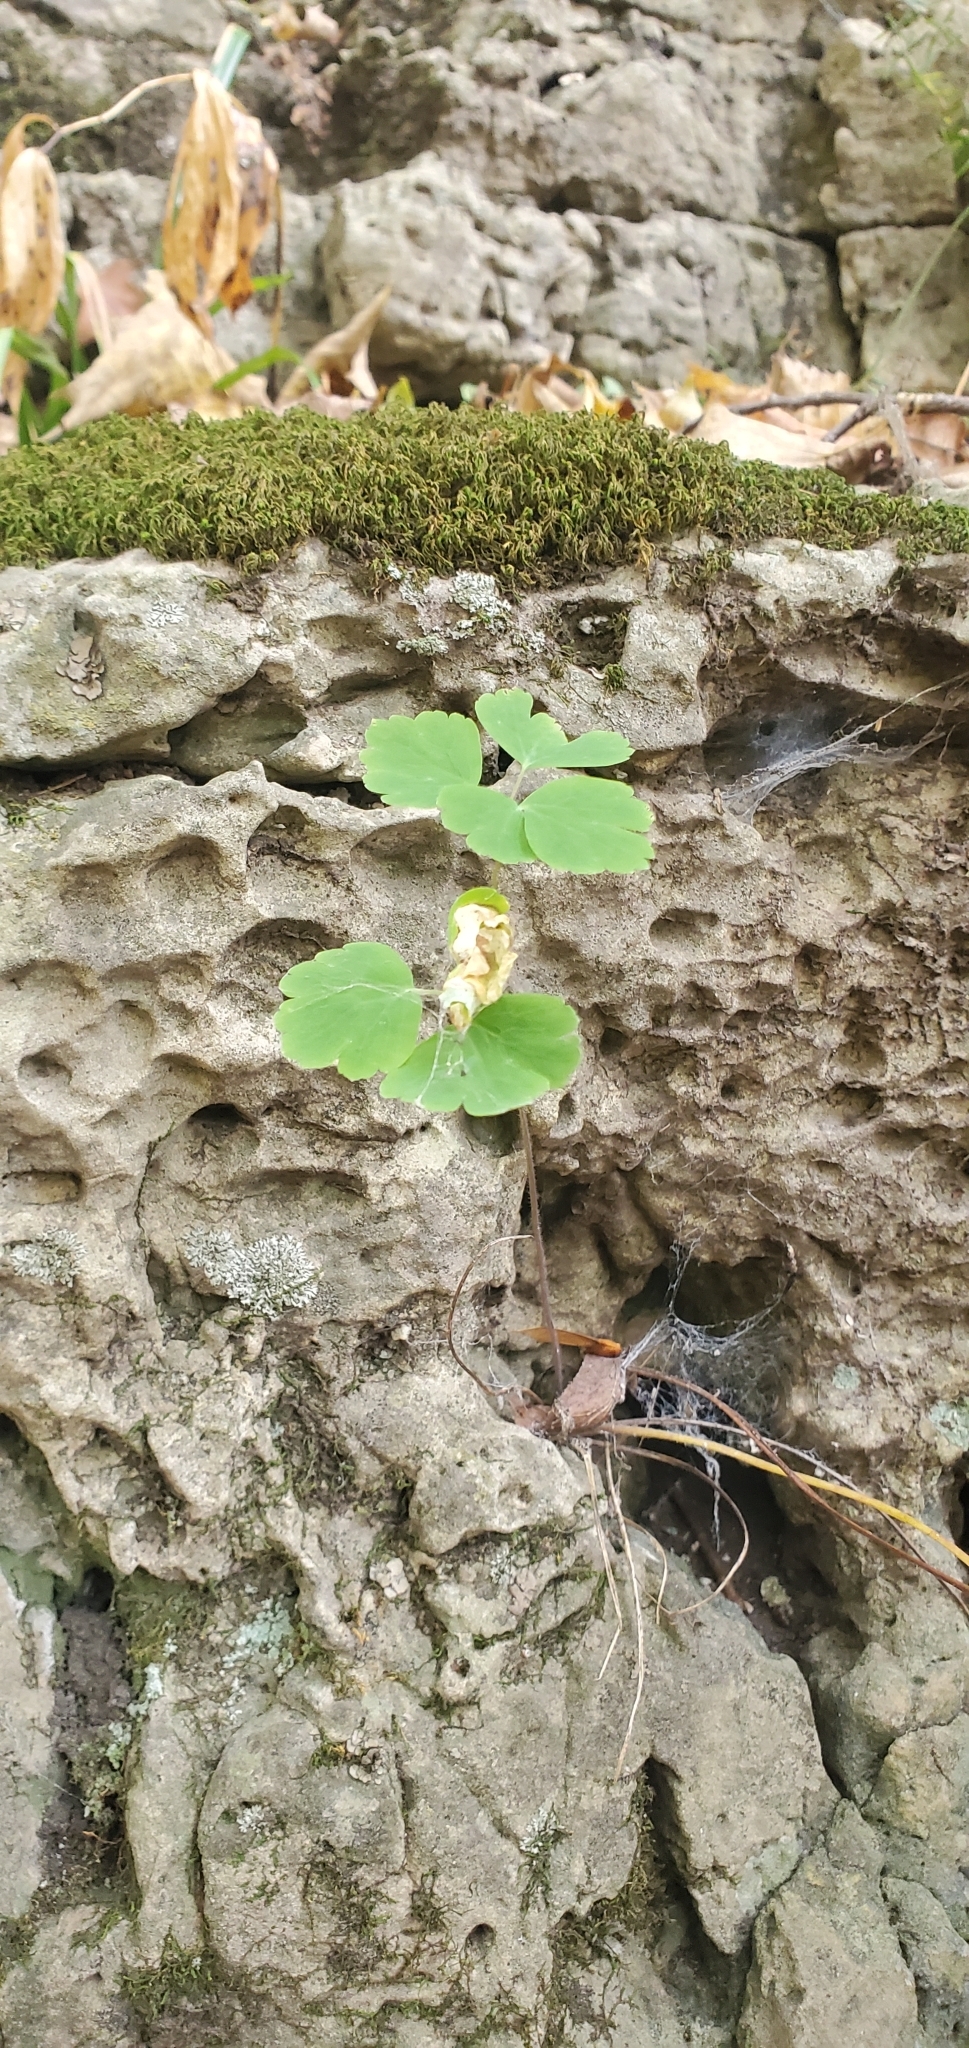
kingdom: Plantae
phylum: Tracheophyta
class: Magnoliopsida
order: Ranunculales
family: Ranunculaceae
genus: Aquilegia
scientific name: Aquilegia canadensis
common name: American columbine
